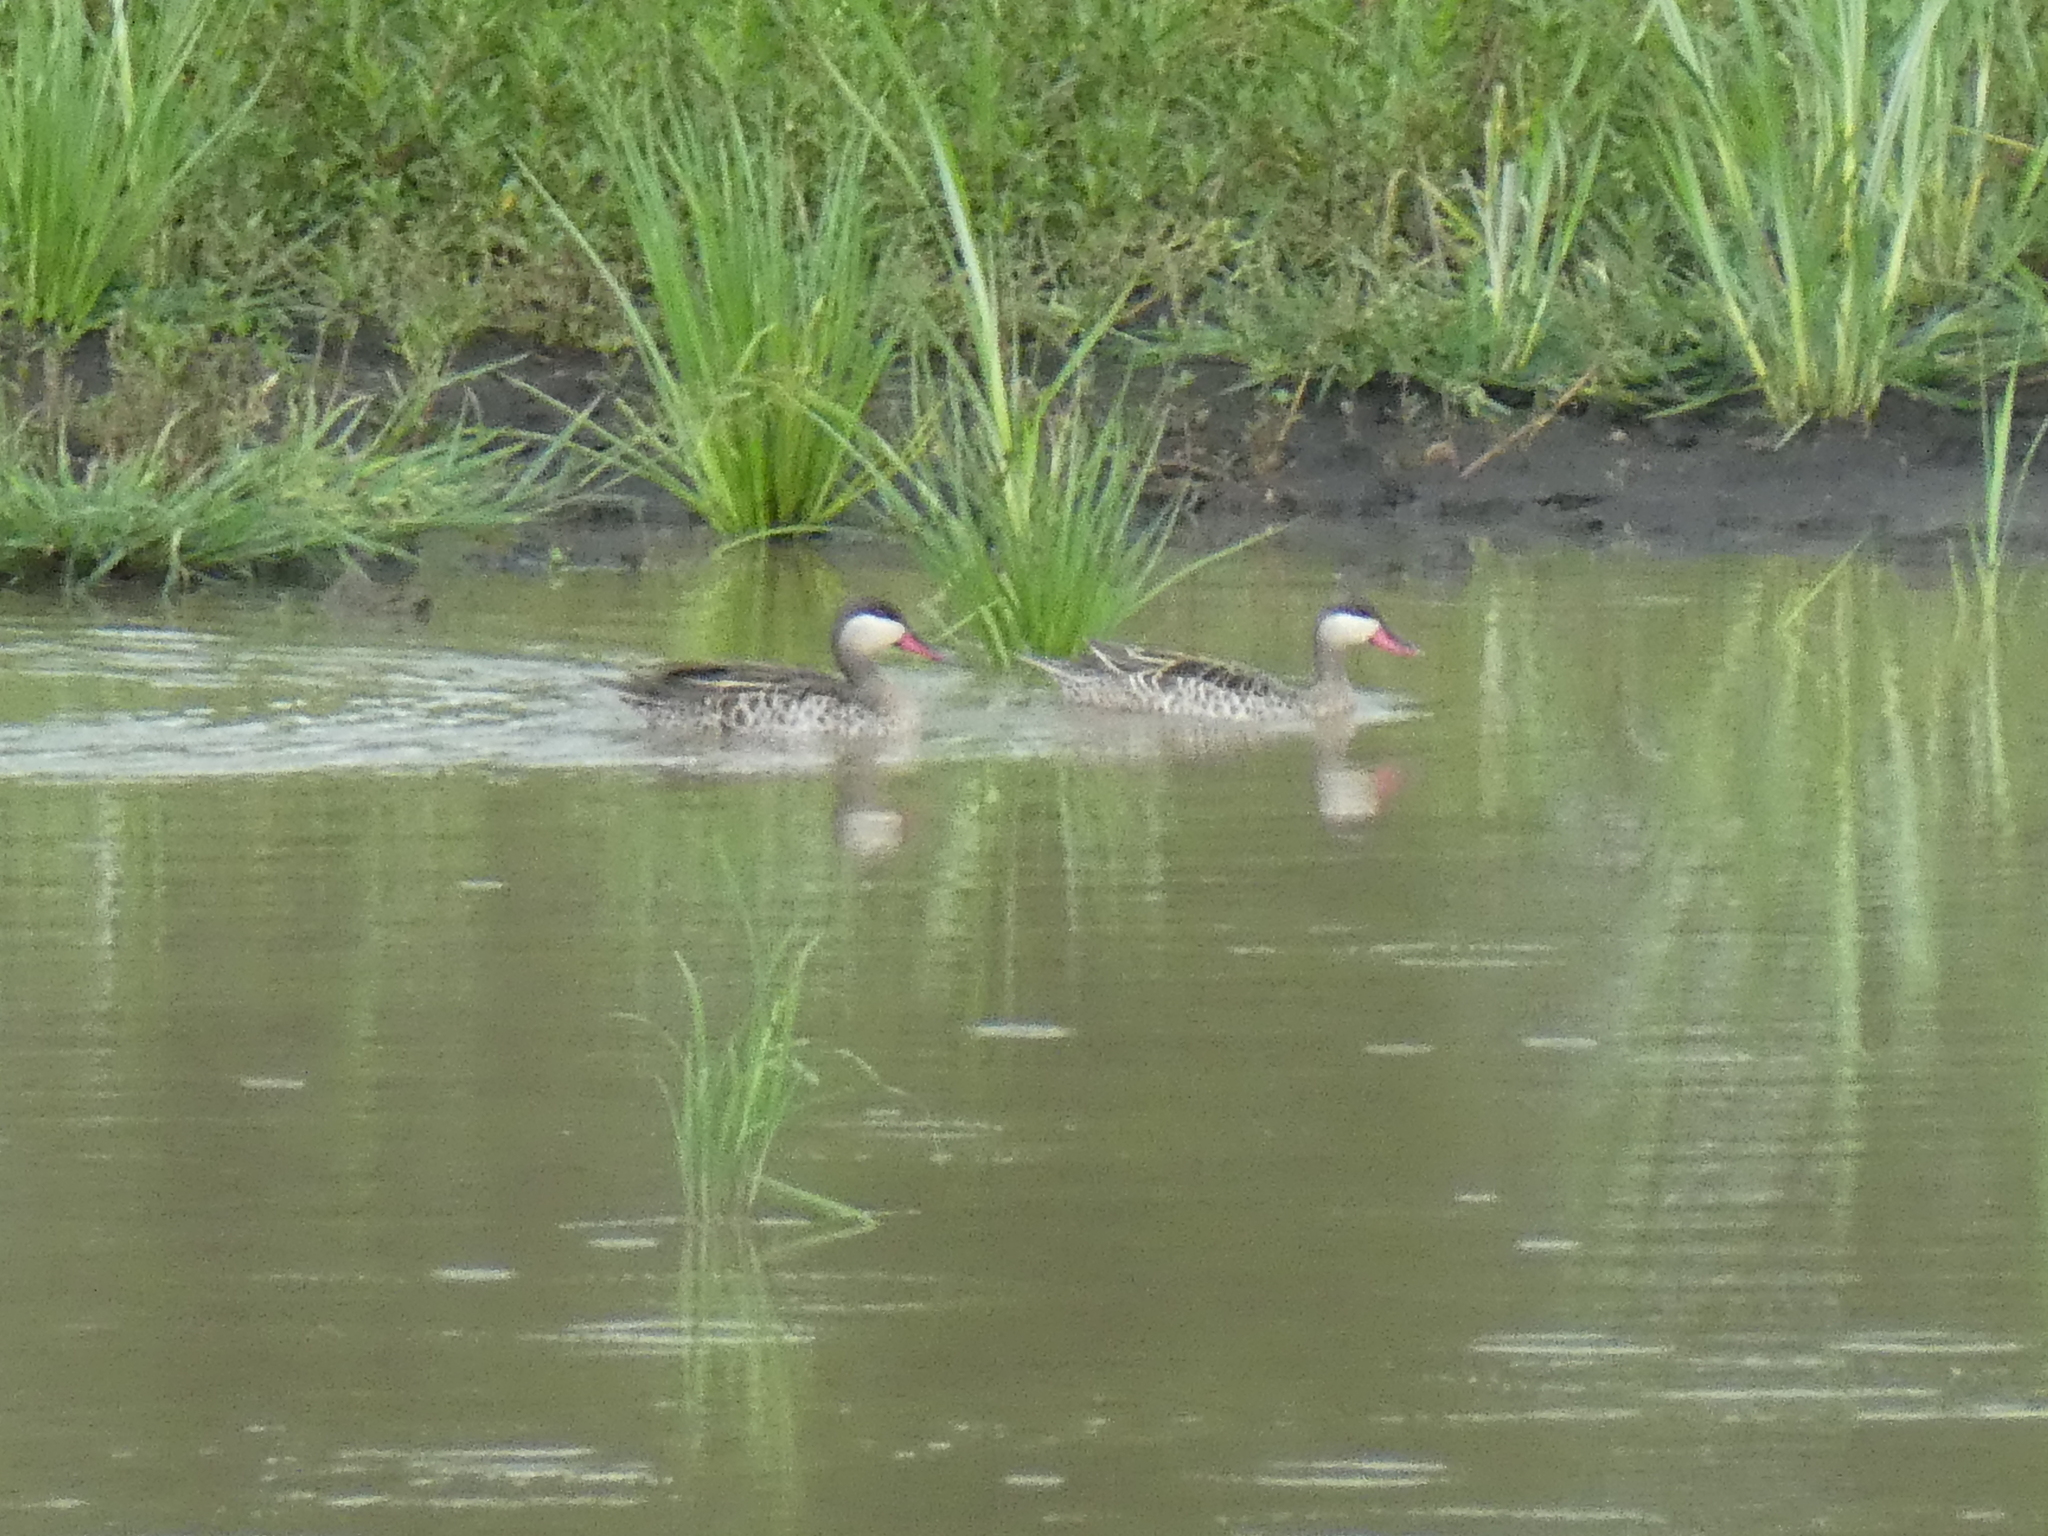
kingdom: Animalia
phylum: Chordata
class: Aves
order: Anseriformes
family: Anatidae
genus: Anas
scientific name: Anas erythrorhyncha
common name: Red-billed teal
